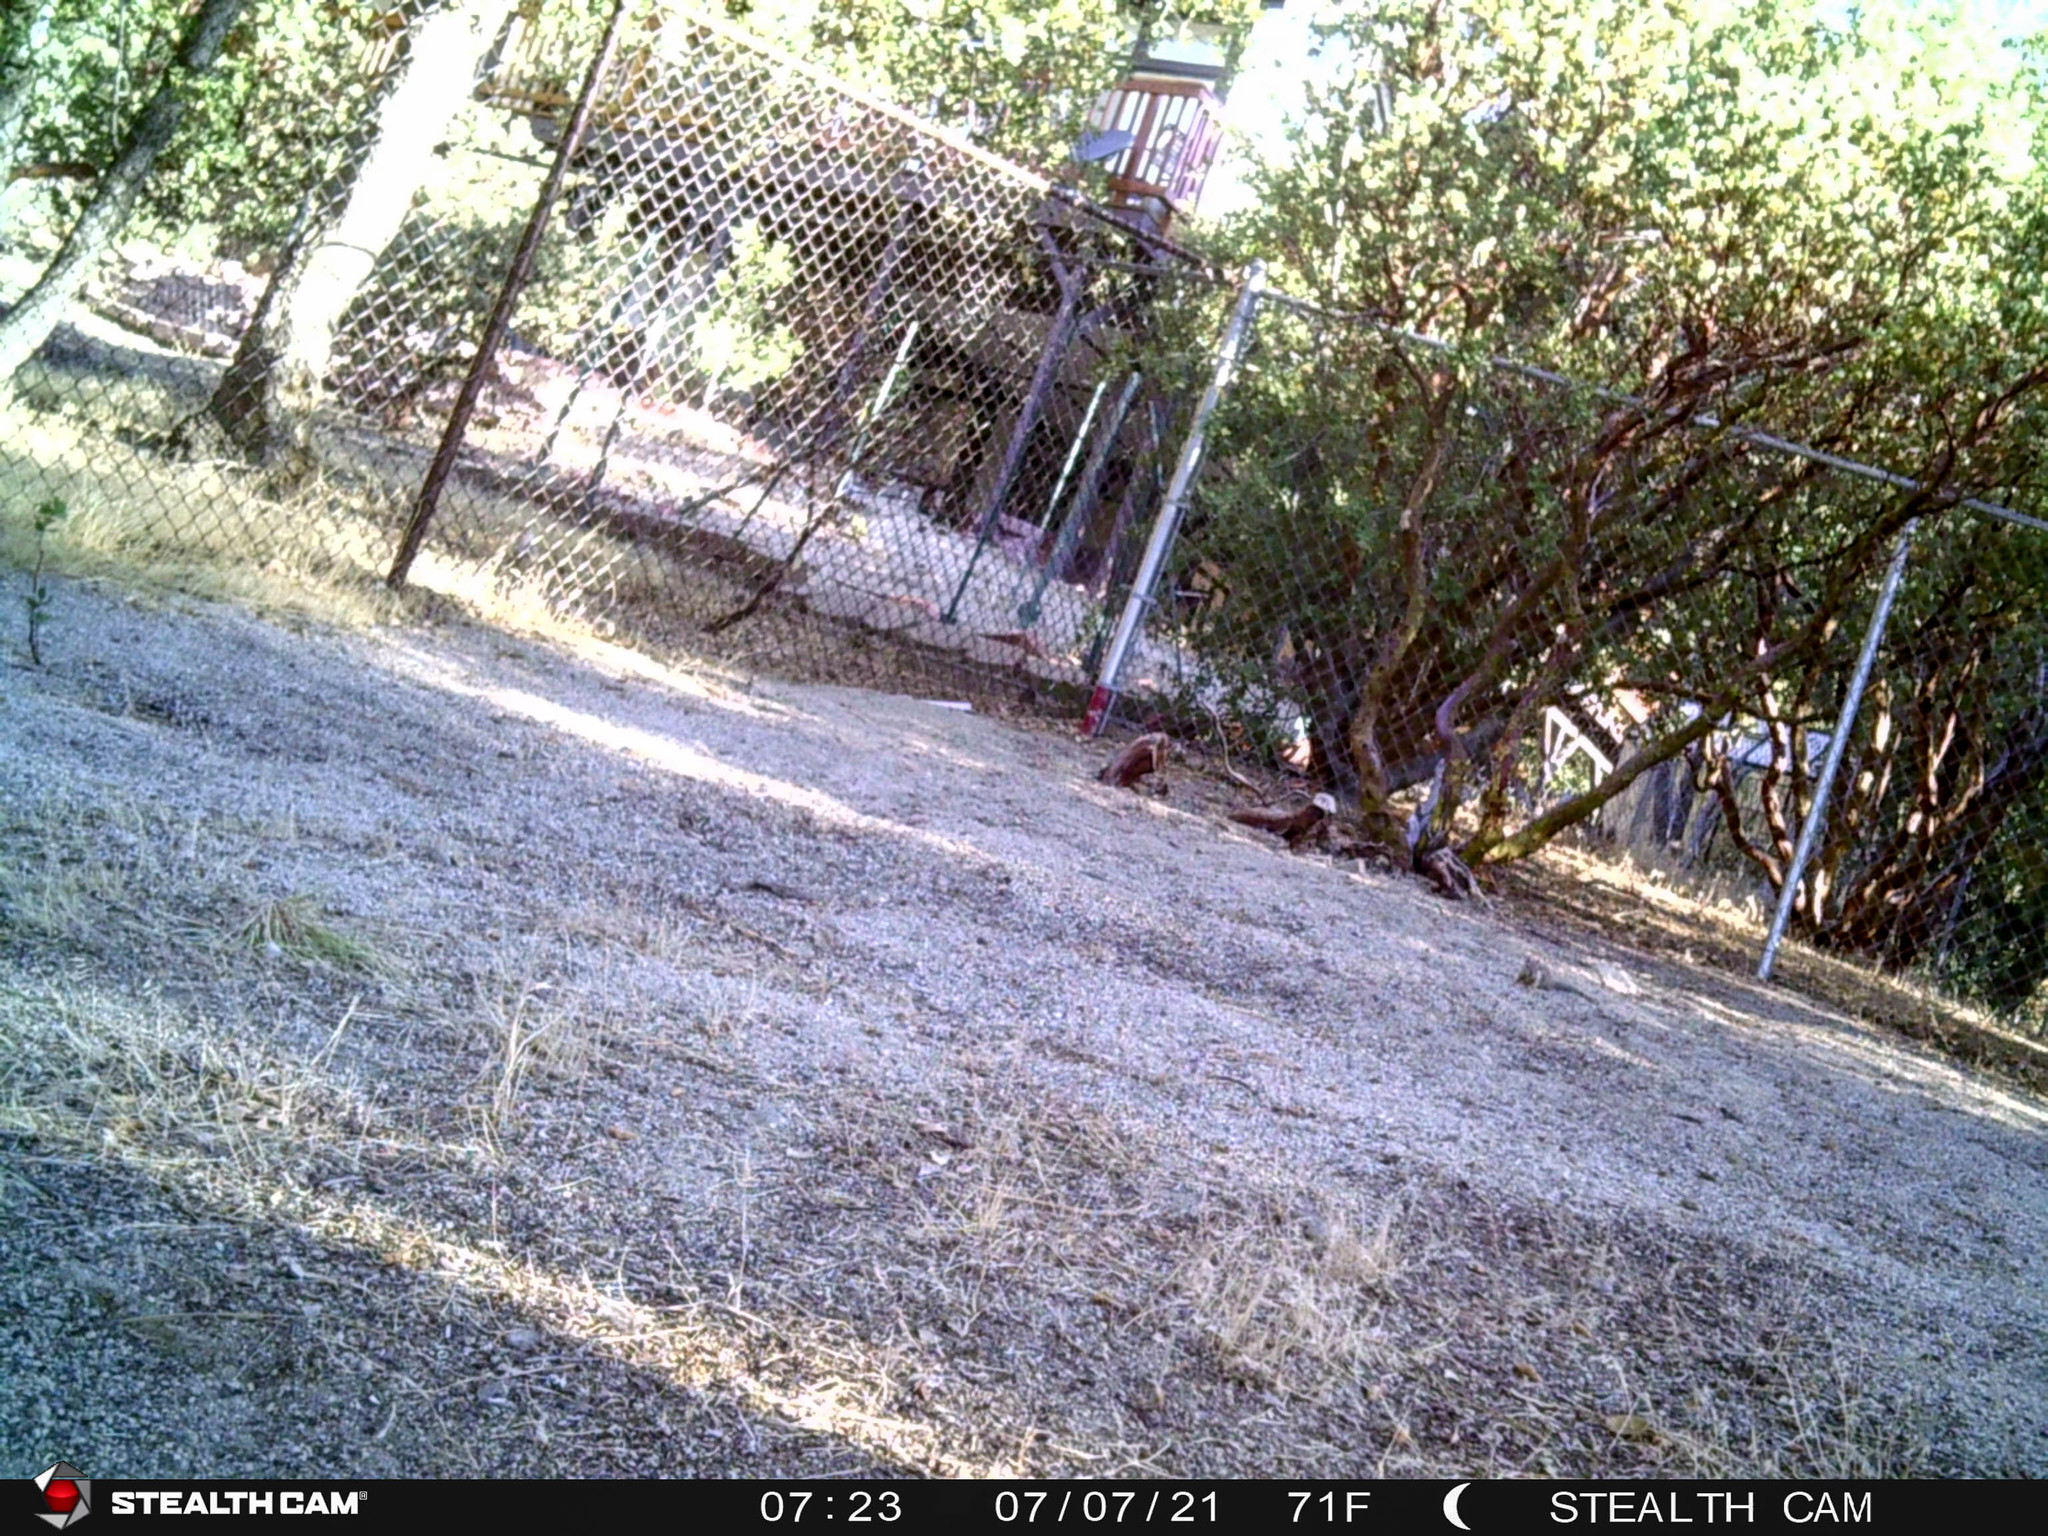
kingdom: Animalia
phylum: Chordata
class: Mammalia
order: Rodentia
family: Sciuridae
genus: Otospermophilus
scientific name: Otospermophilus beecheyi
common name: California ground squirrel
